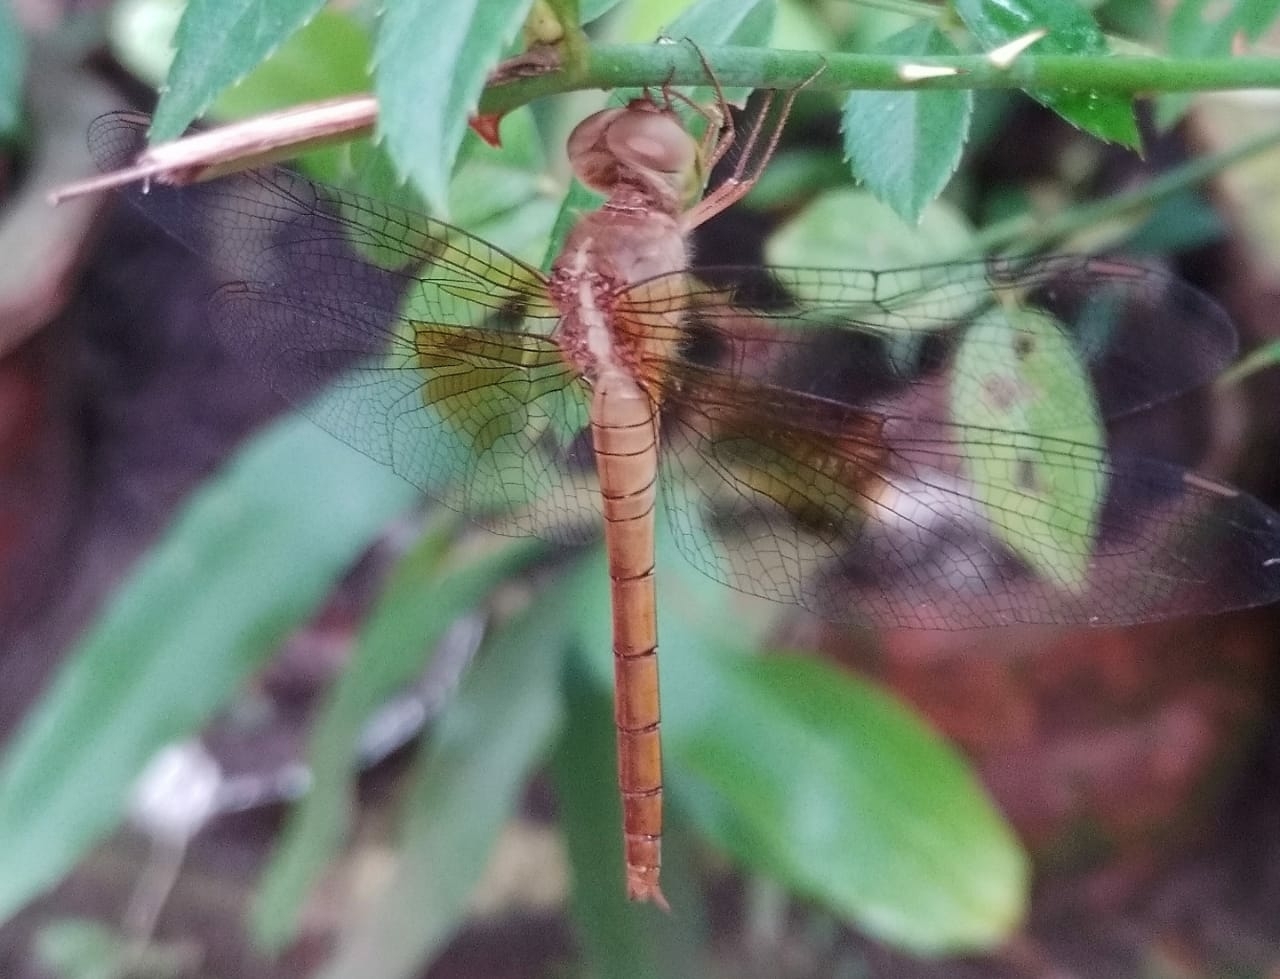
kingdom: Animalia
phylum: Arthropoda
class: Insecta
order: Odonata
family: Libellulidae
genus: Tholymis
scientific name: Tholymis tillarga
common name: Coral-tailed cloud wing
